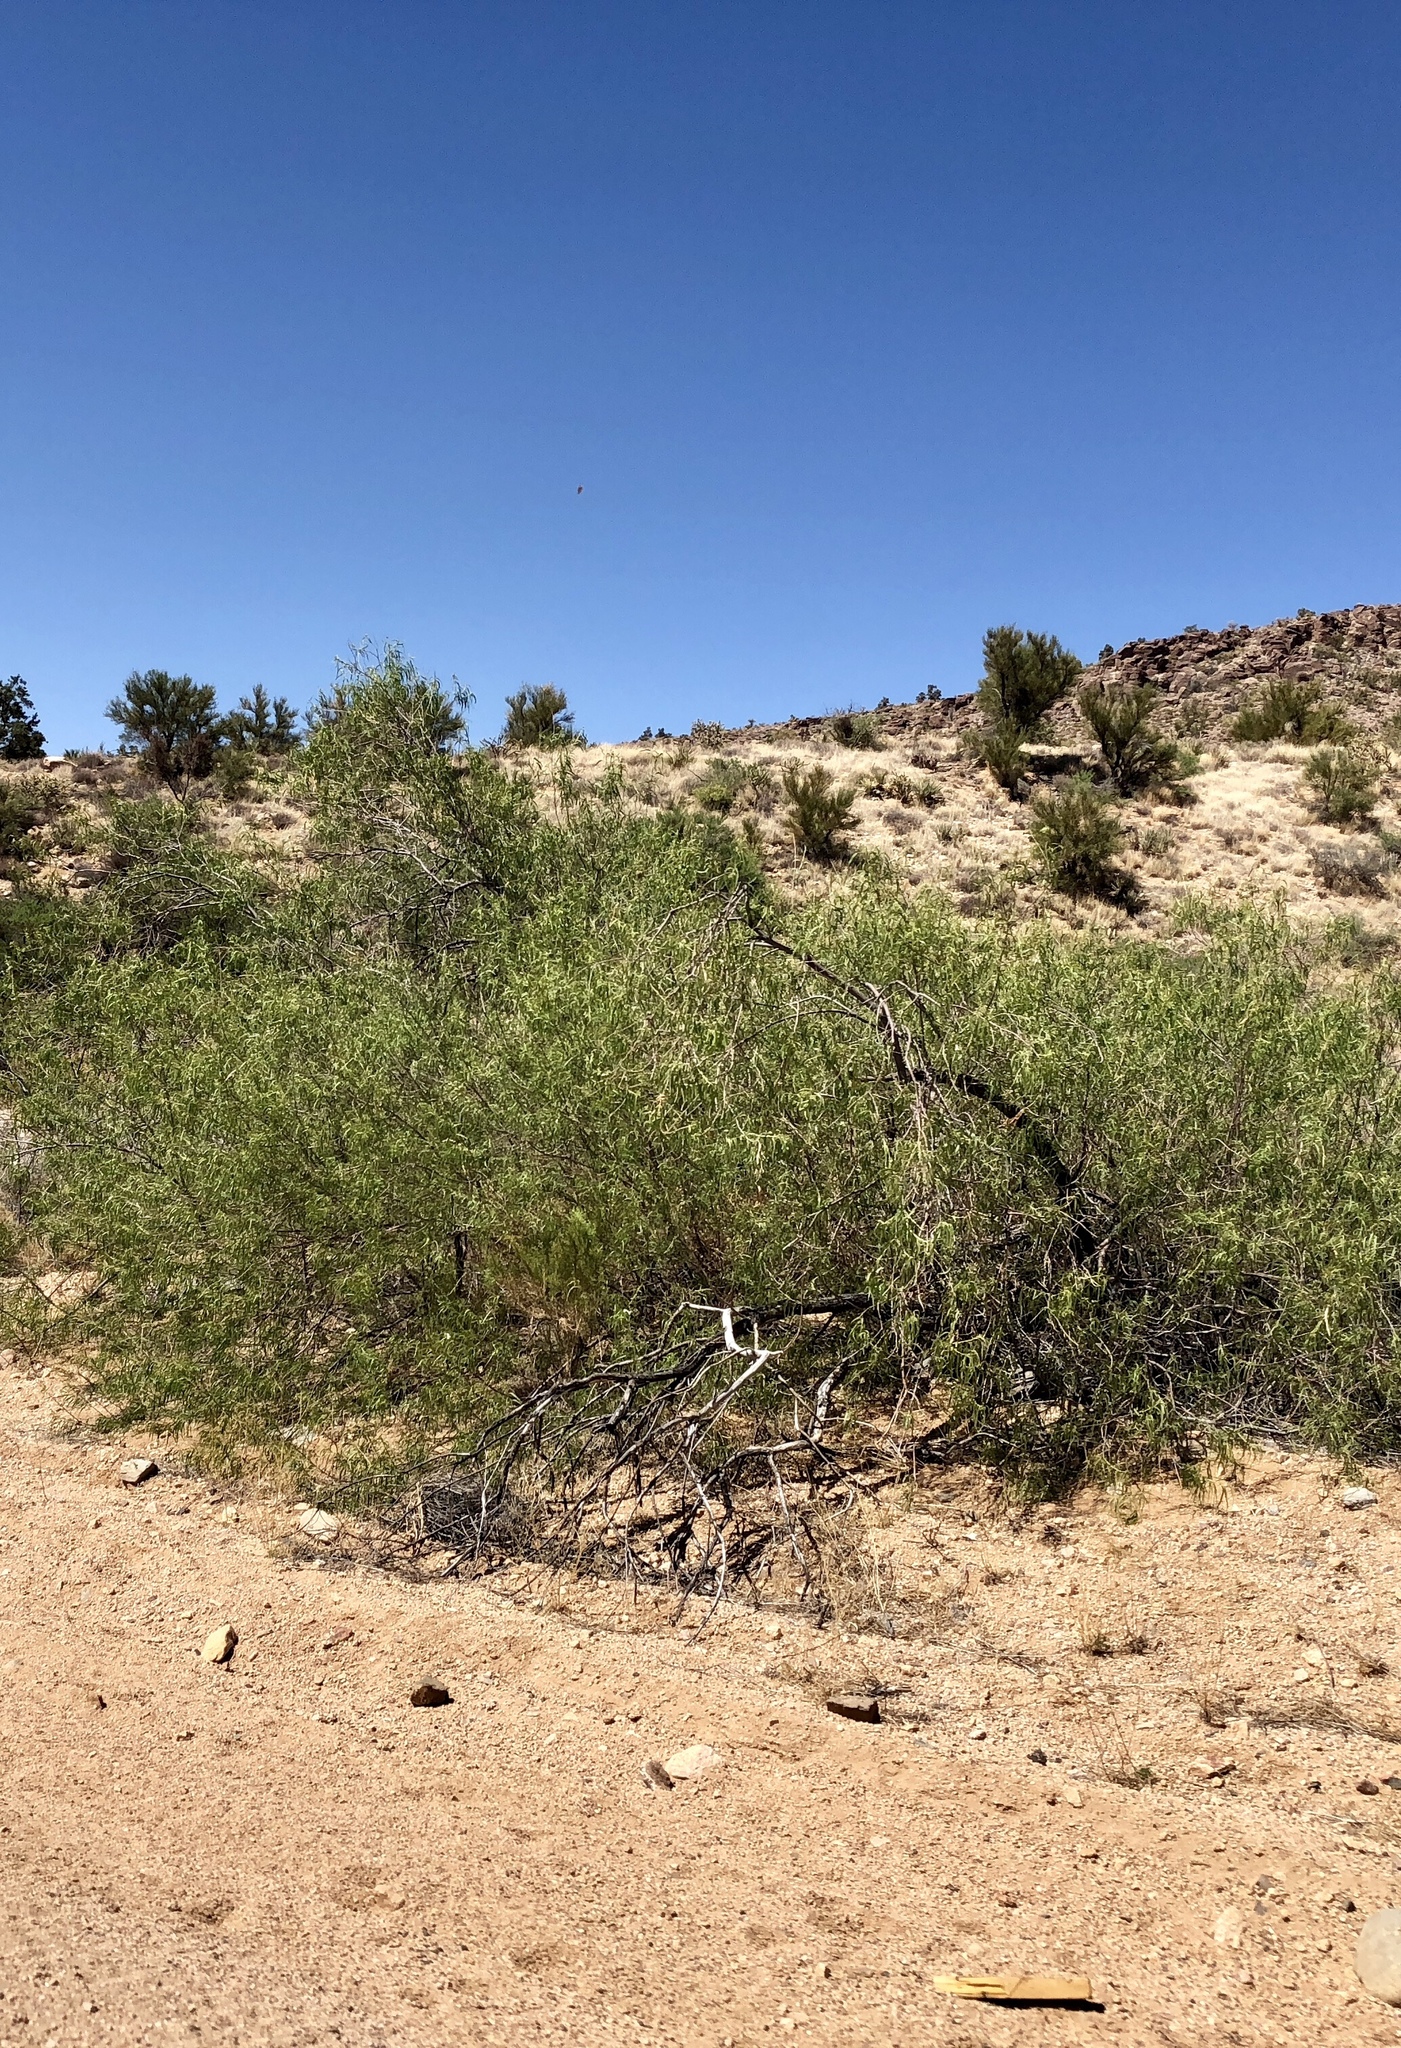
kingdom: Plantae
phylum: Tracheophyta
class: Magnoliopsida
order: Lamiales
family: Bignoniaceae
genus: Chilopsis
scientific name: Chilopsis linearis
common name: Desert-willow
